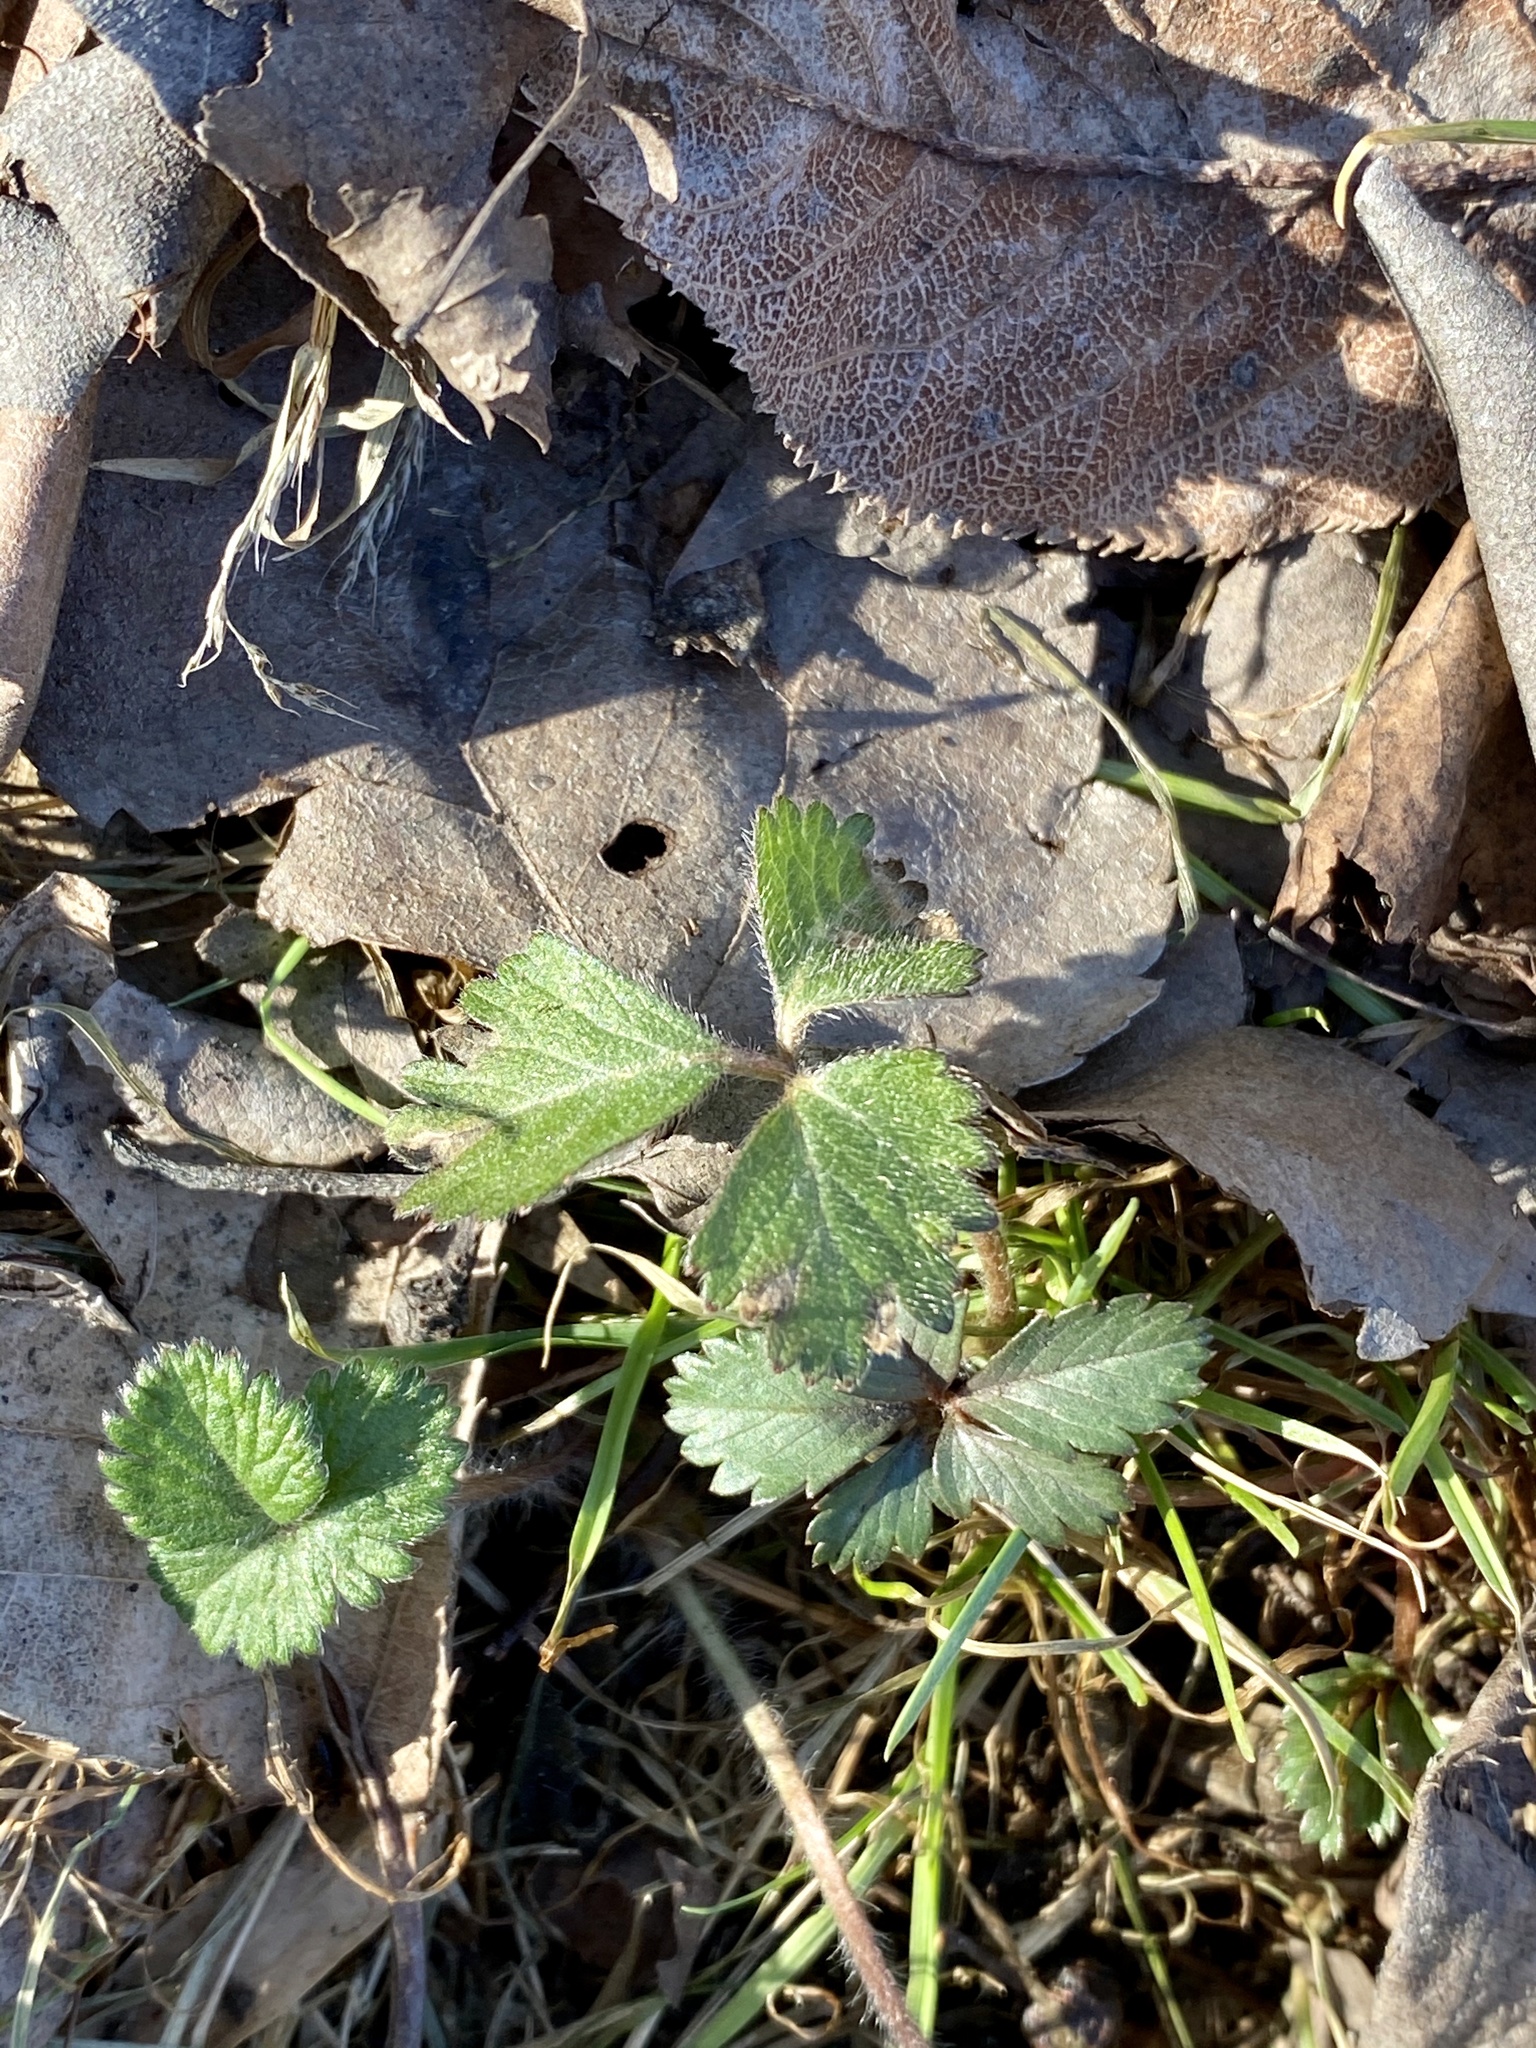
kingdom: Plantae
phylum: Tracheophyta
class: Magnoliopsida
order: Rosales
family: Rosaceae
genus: Potentilla
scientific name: Potentilla indica
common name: Yellow-flowered strawberry
